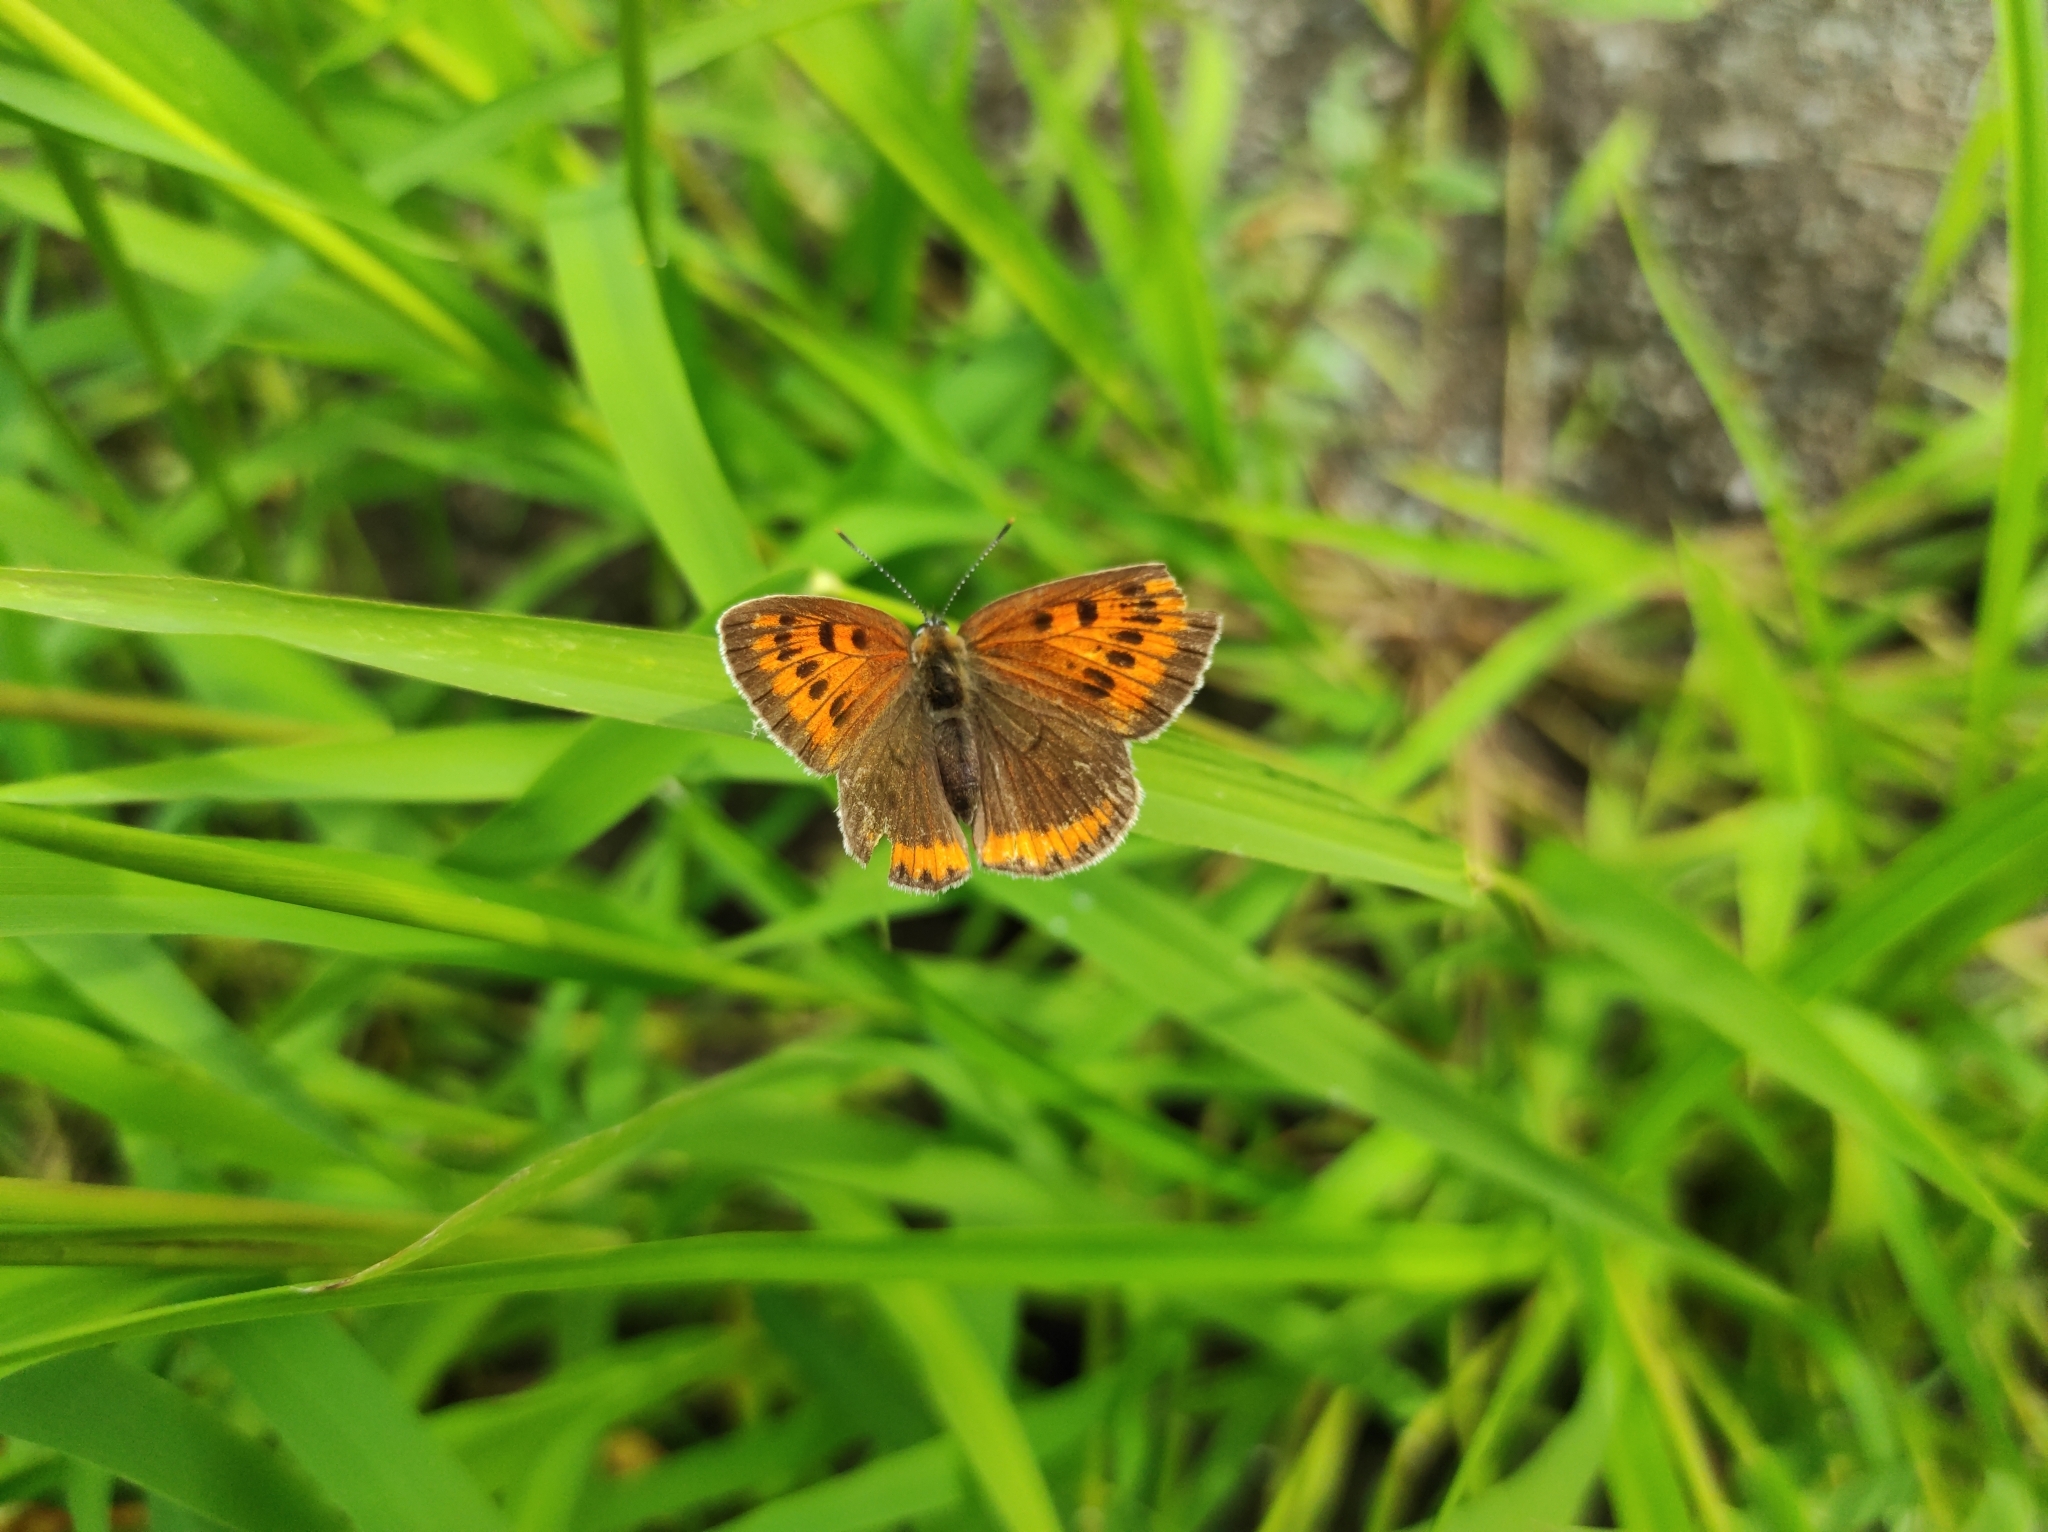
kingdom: Animalia
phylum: Arthropoda
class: Insecta
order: Lepidoptera
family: Lycaenidae
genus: Lycaena
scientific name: Lycaena dispar
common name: Large copper
